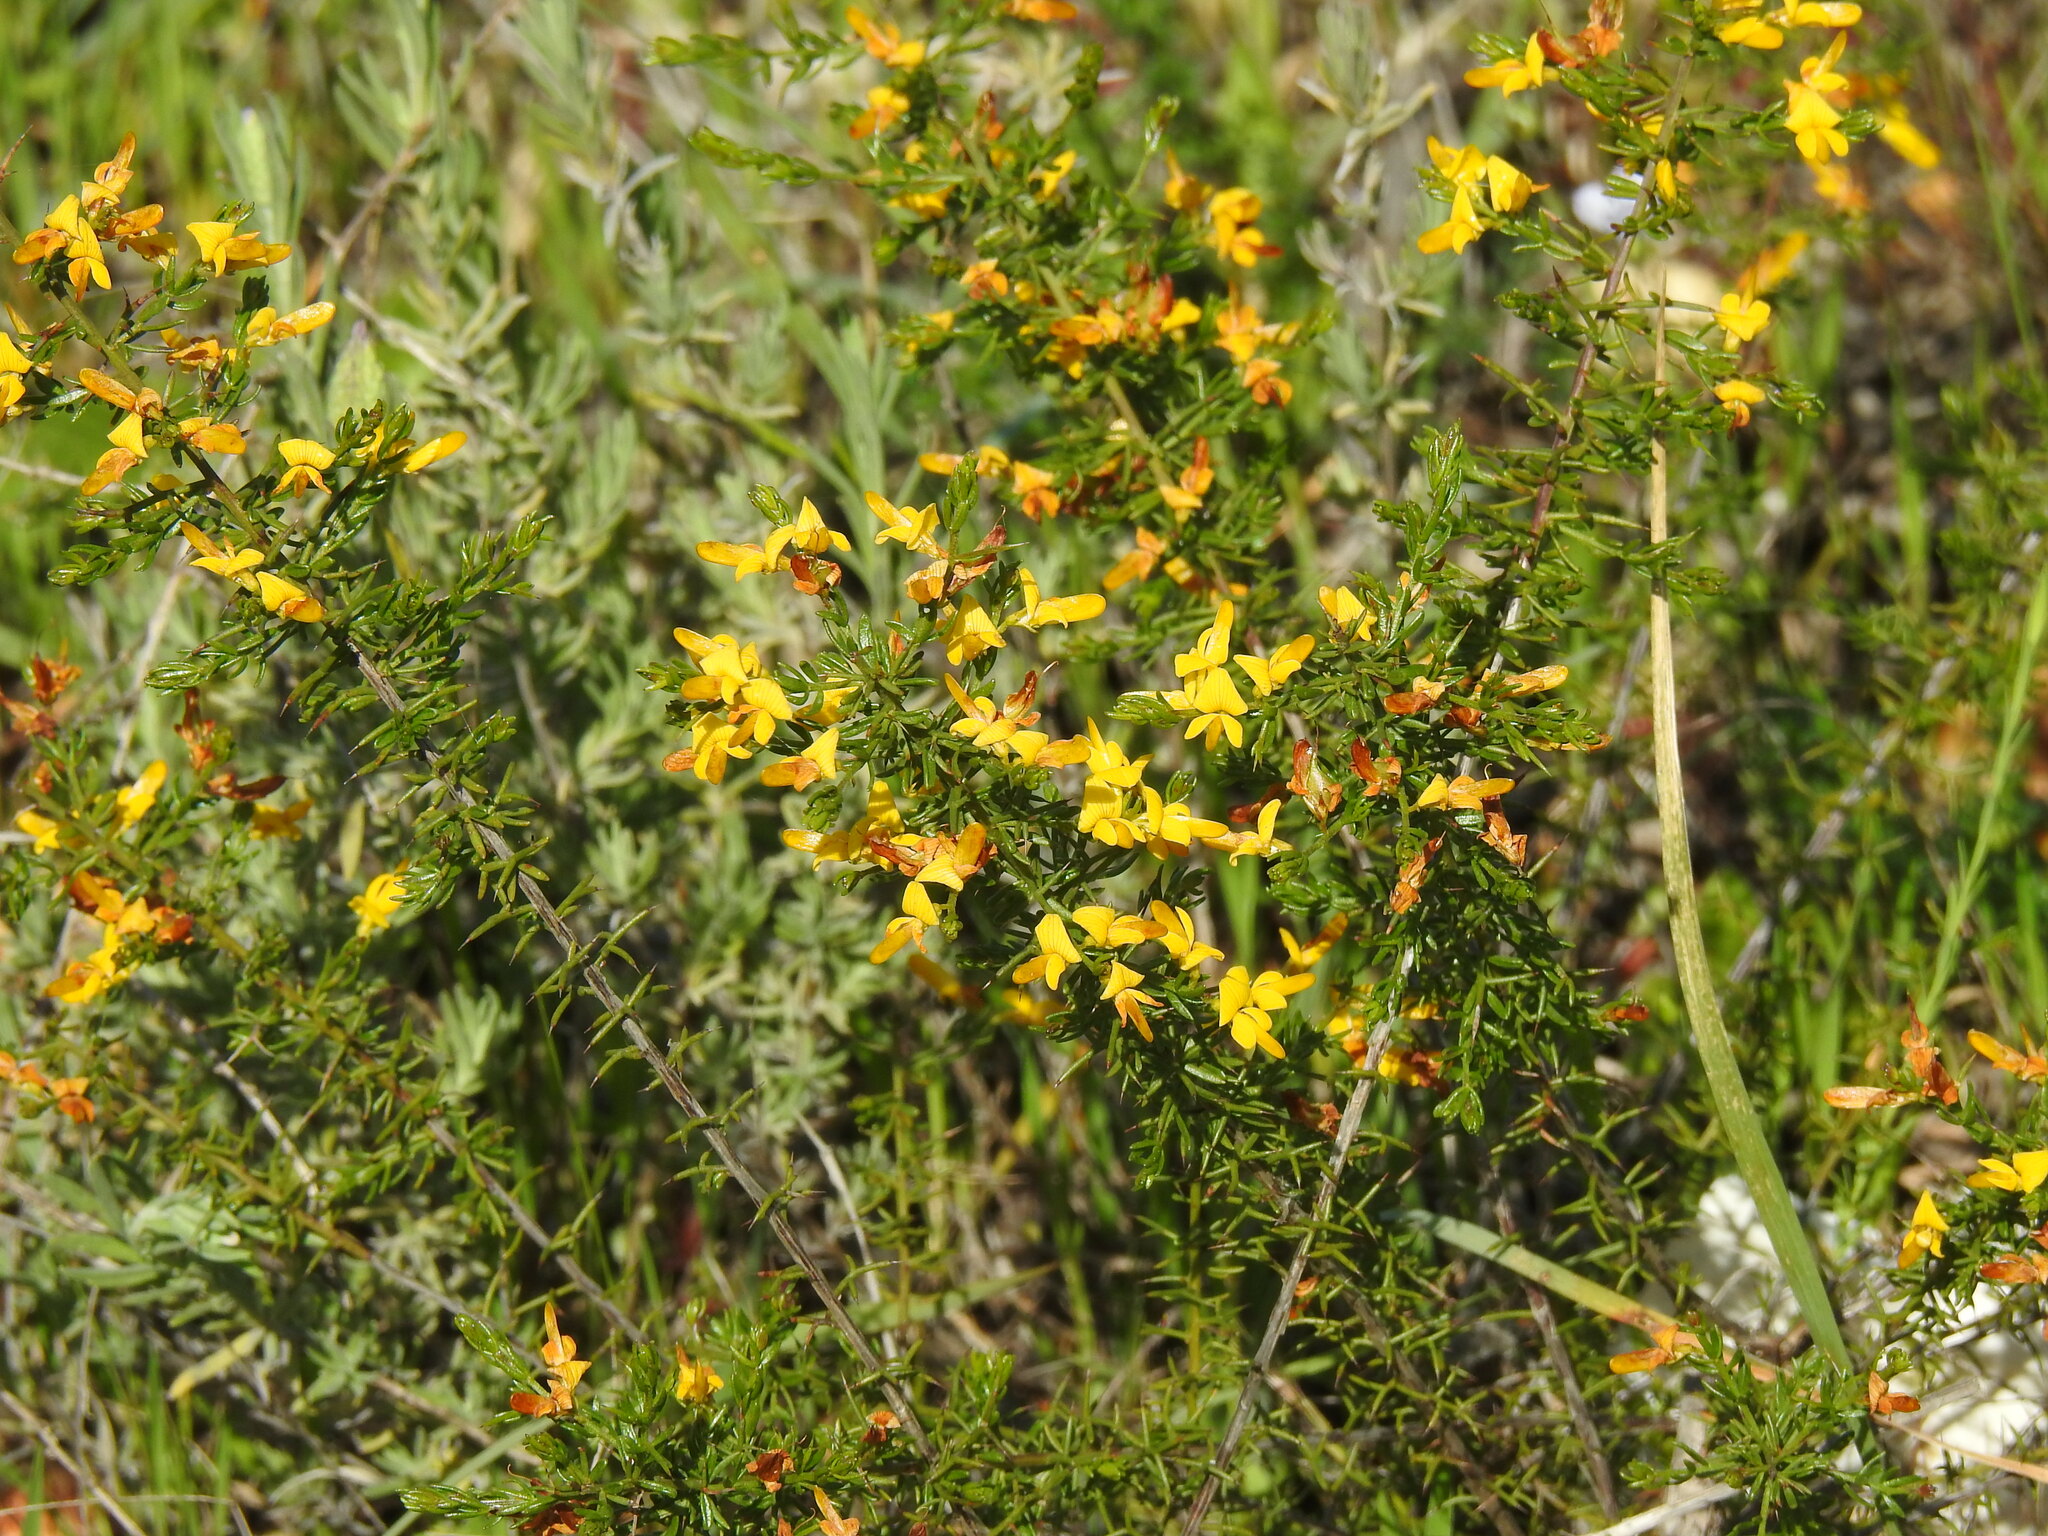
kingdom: Plantae
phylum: Tracheophyta
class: Magnoliopsida
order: Fabales
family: Fabaceae
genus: Genista
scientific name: Genista triacanthos
